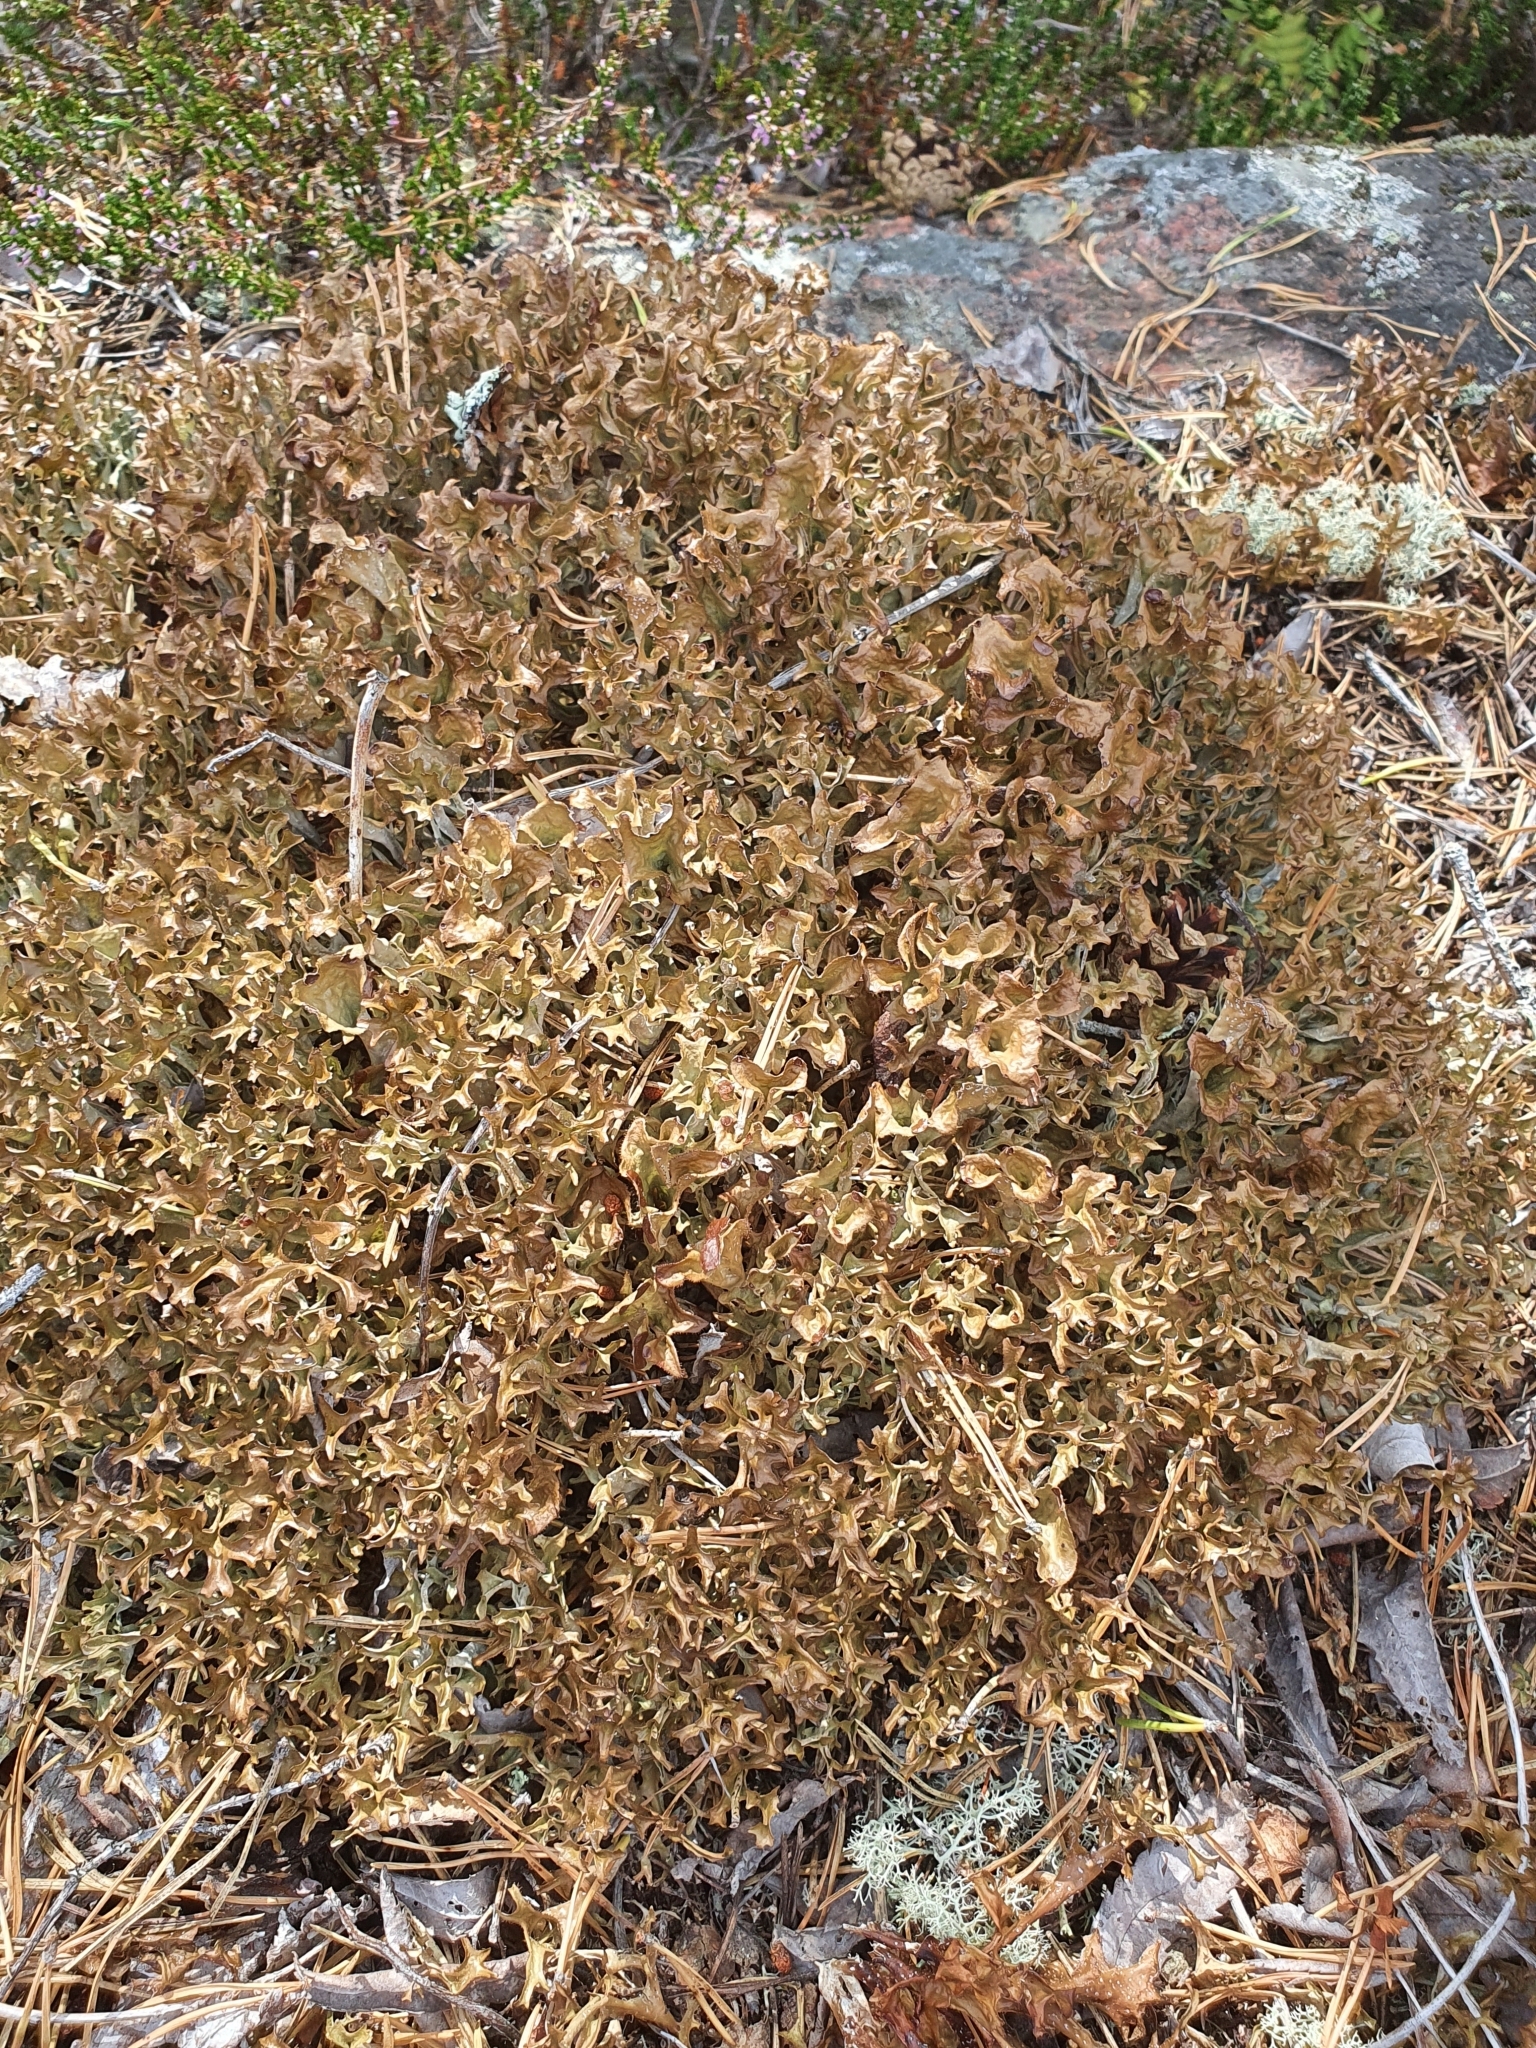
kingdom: Fungi
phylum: Ascomycota
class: Lecanoromycetes
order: Lecanorales
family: Parmeliaceae
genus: Cetraria
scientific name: Cetraria islandica
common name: Iceland lichen
